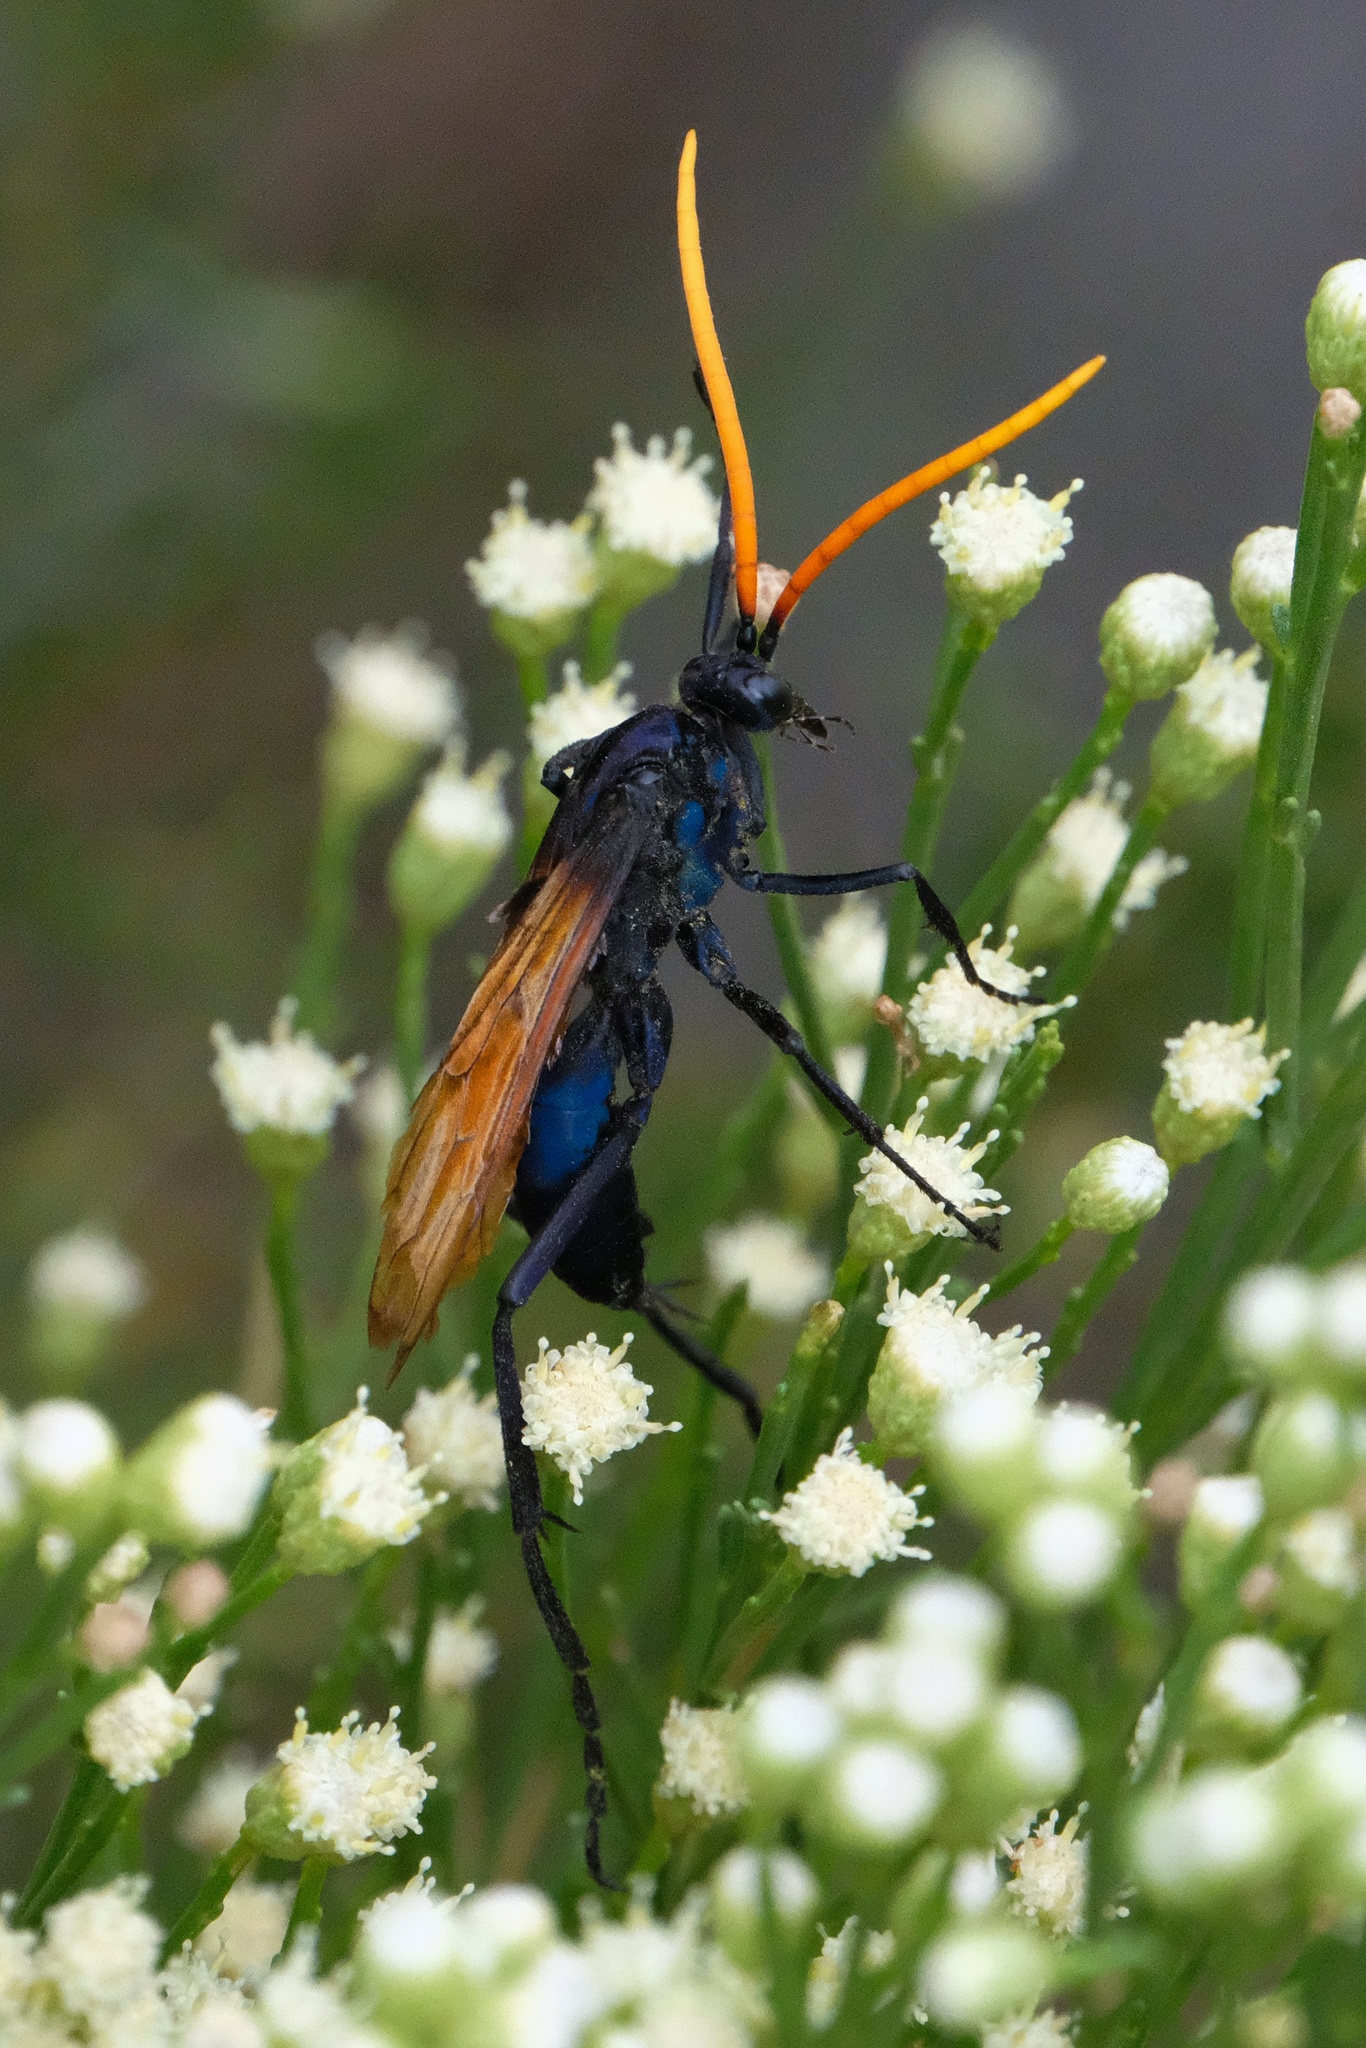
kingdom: Animalia
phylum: Arthropoda
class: Insecta
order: Hymenoptera
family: Pompilidae
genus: Pepsis
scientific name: Pepsis mildei
